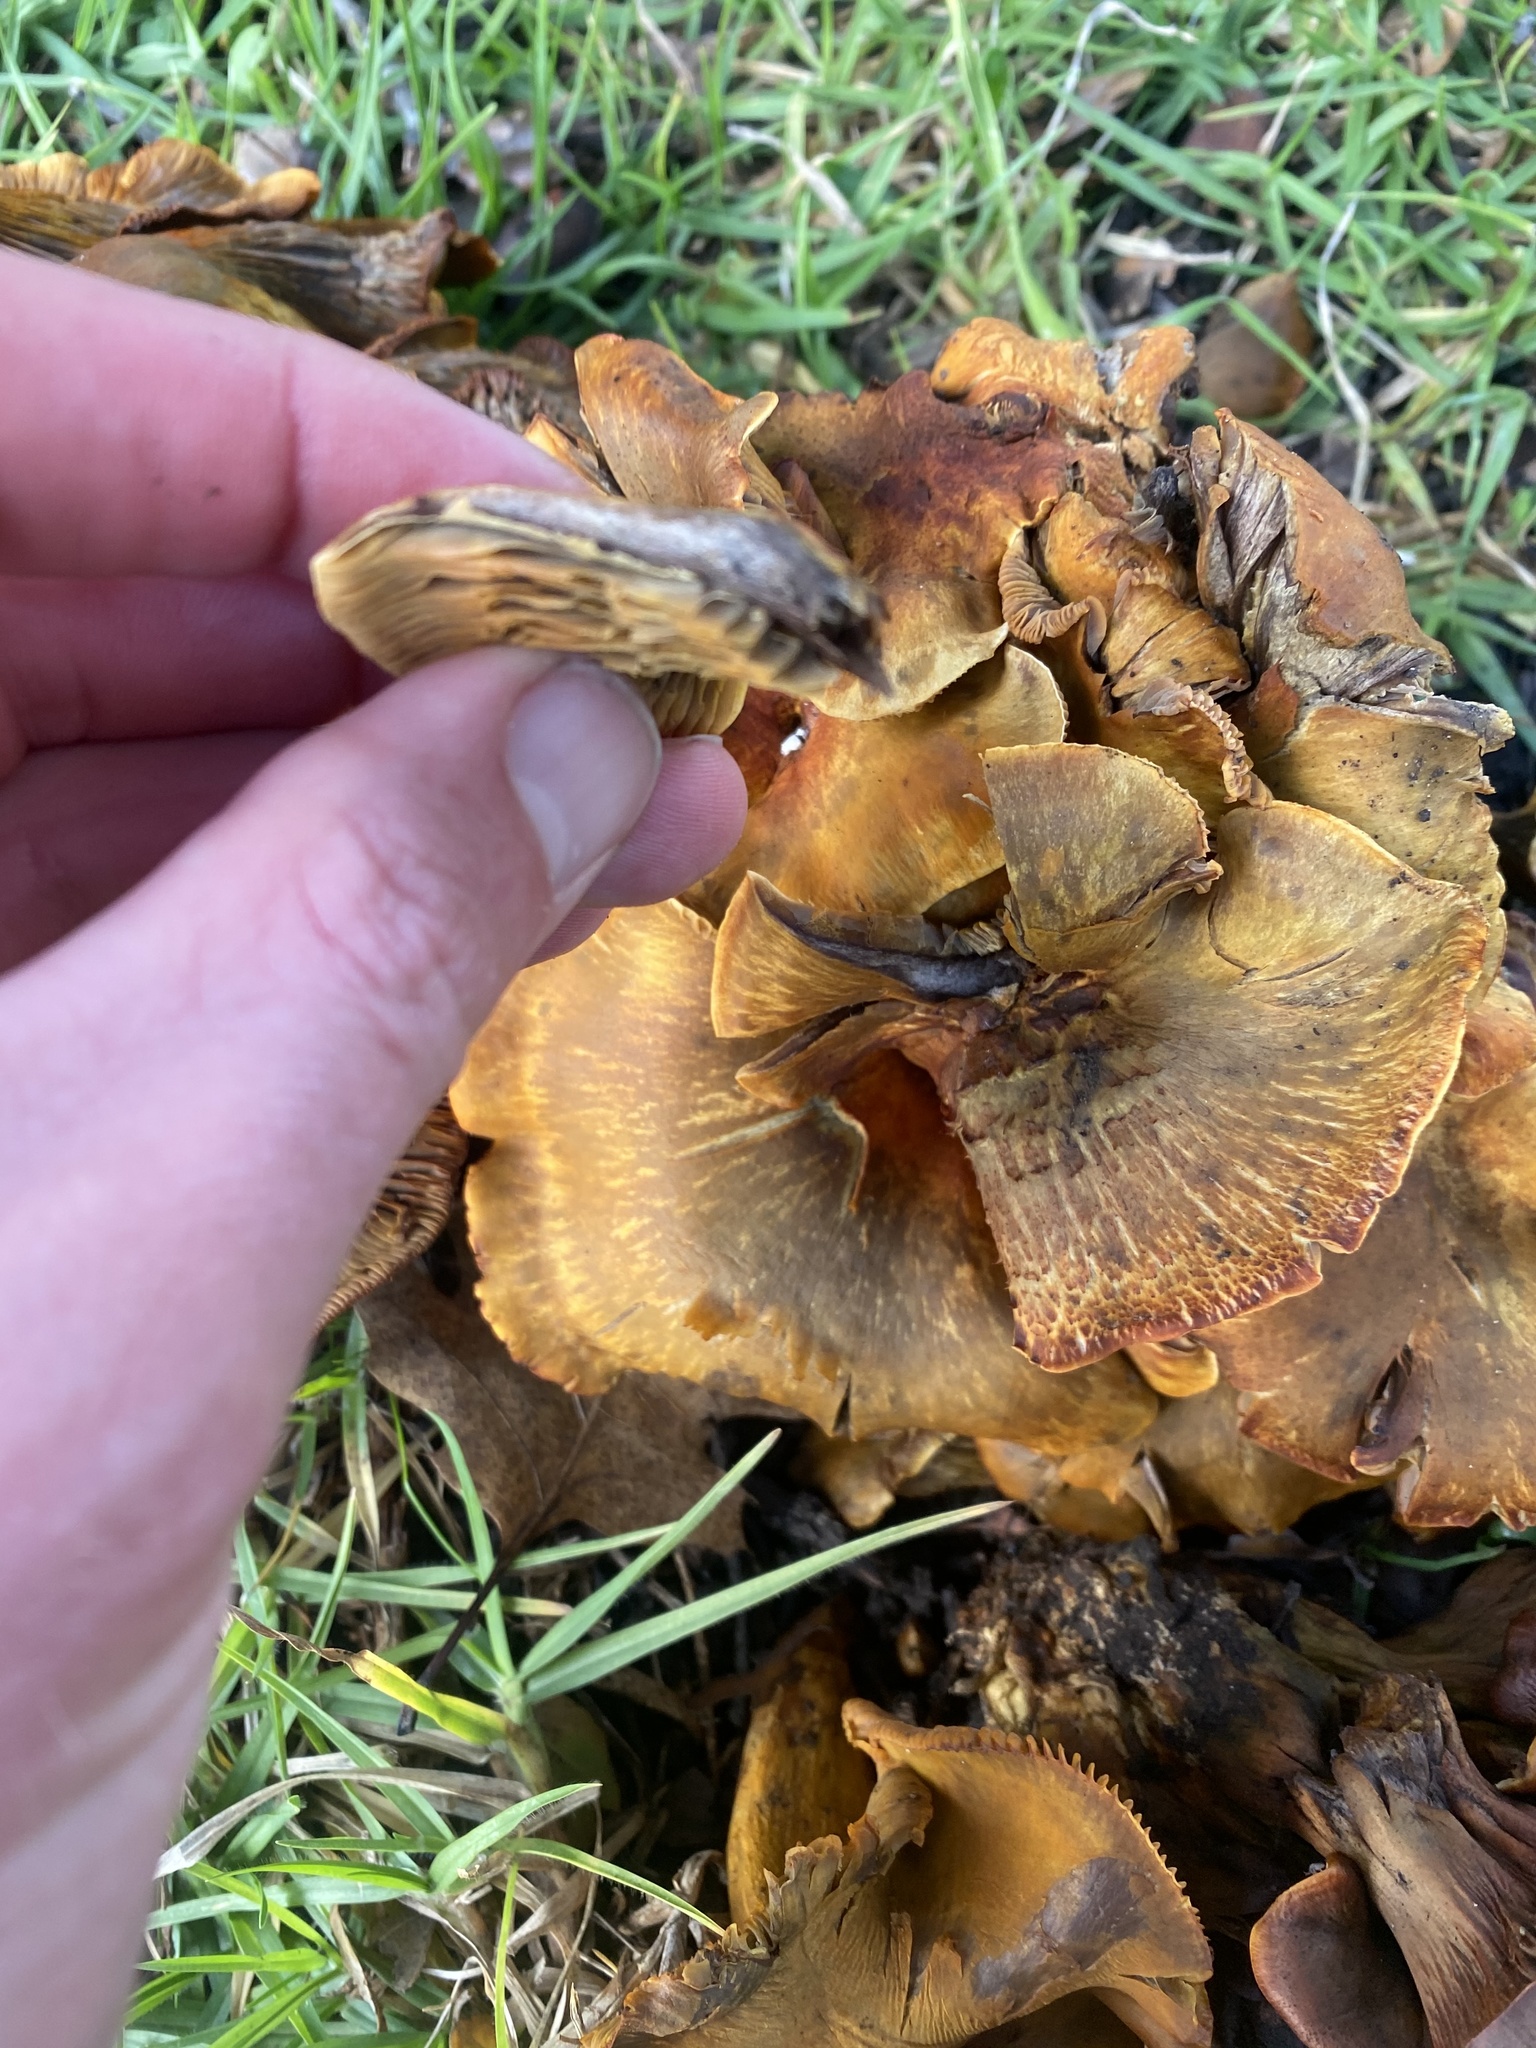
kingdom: Fungi
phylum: Basidiomycota
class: Agaricomycetes
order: Agaricales
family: Omphalotaceae
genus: Omphalotus
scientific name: Omphalotus olivascens
